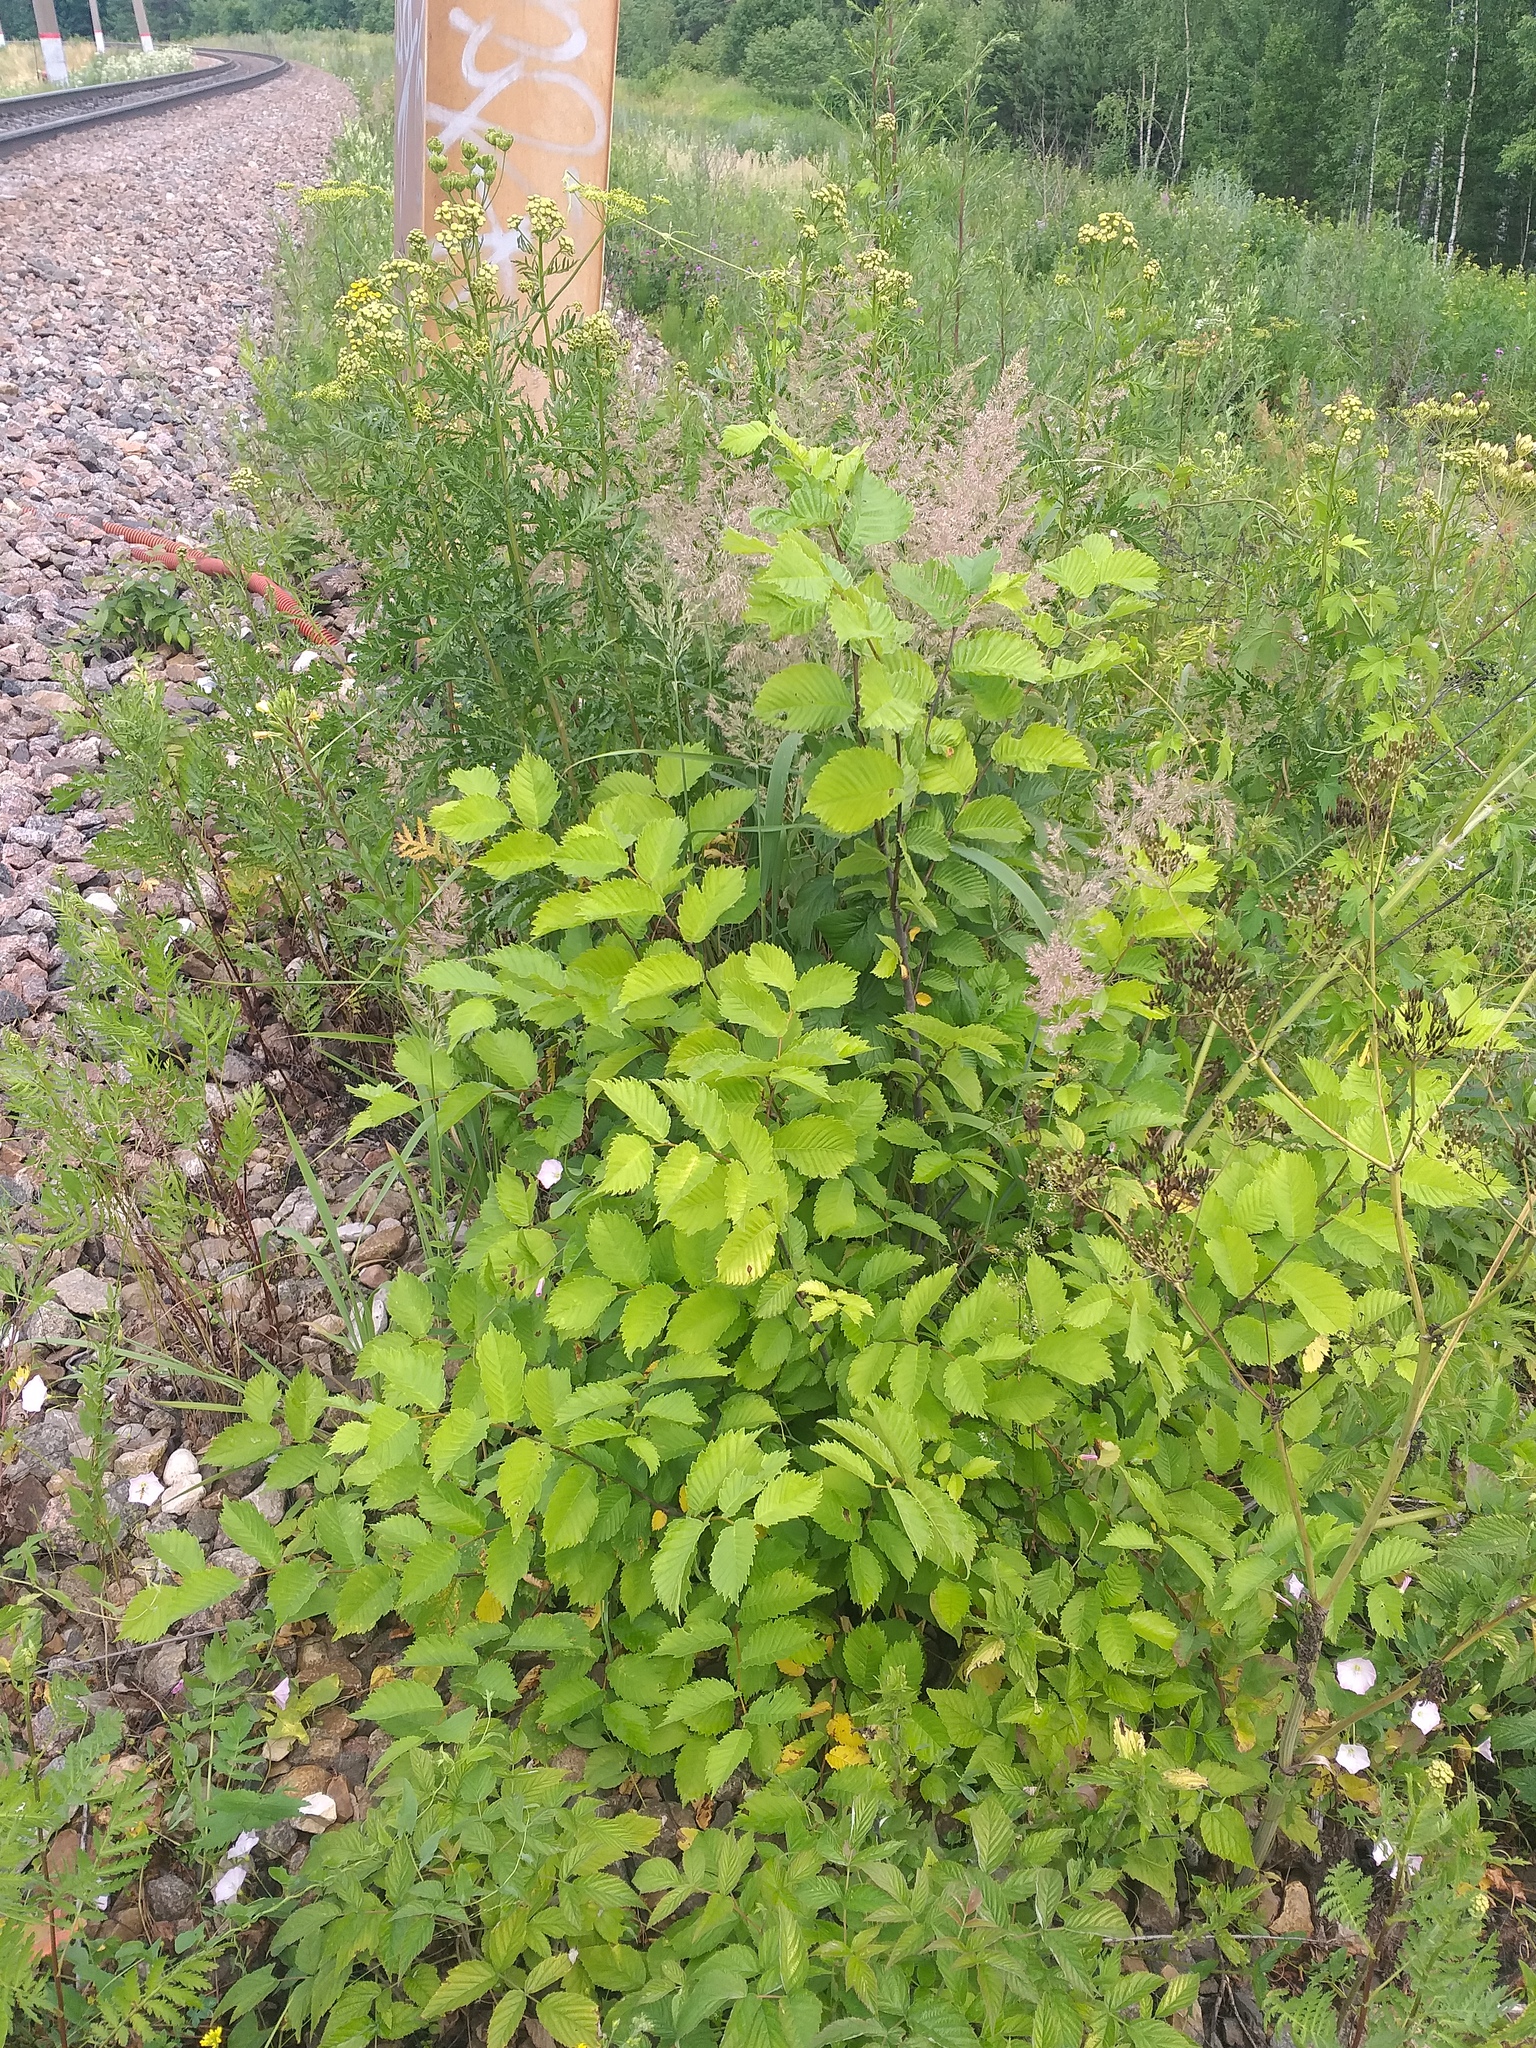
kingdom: Plantae
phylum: Tracheophyta
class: Magnoliopsida
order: Rosales
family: Ulmaceae
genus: Ulmus
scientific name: Ulmus laevis
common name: European white-elm
